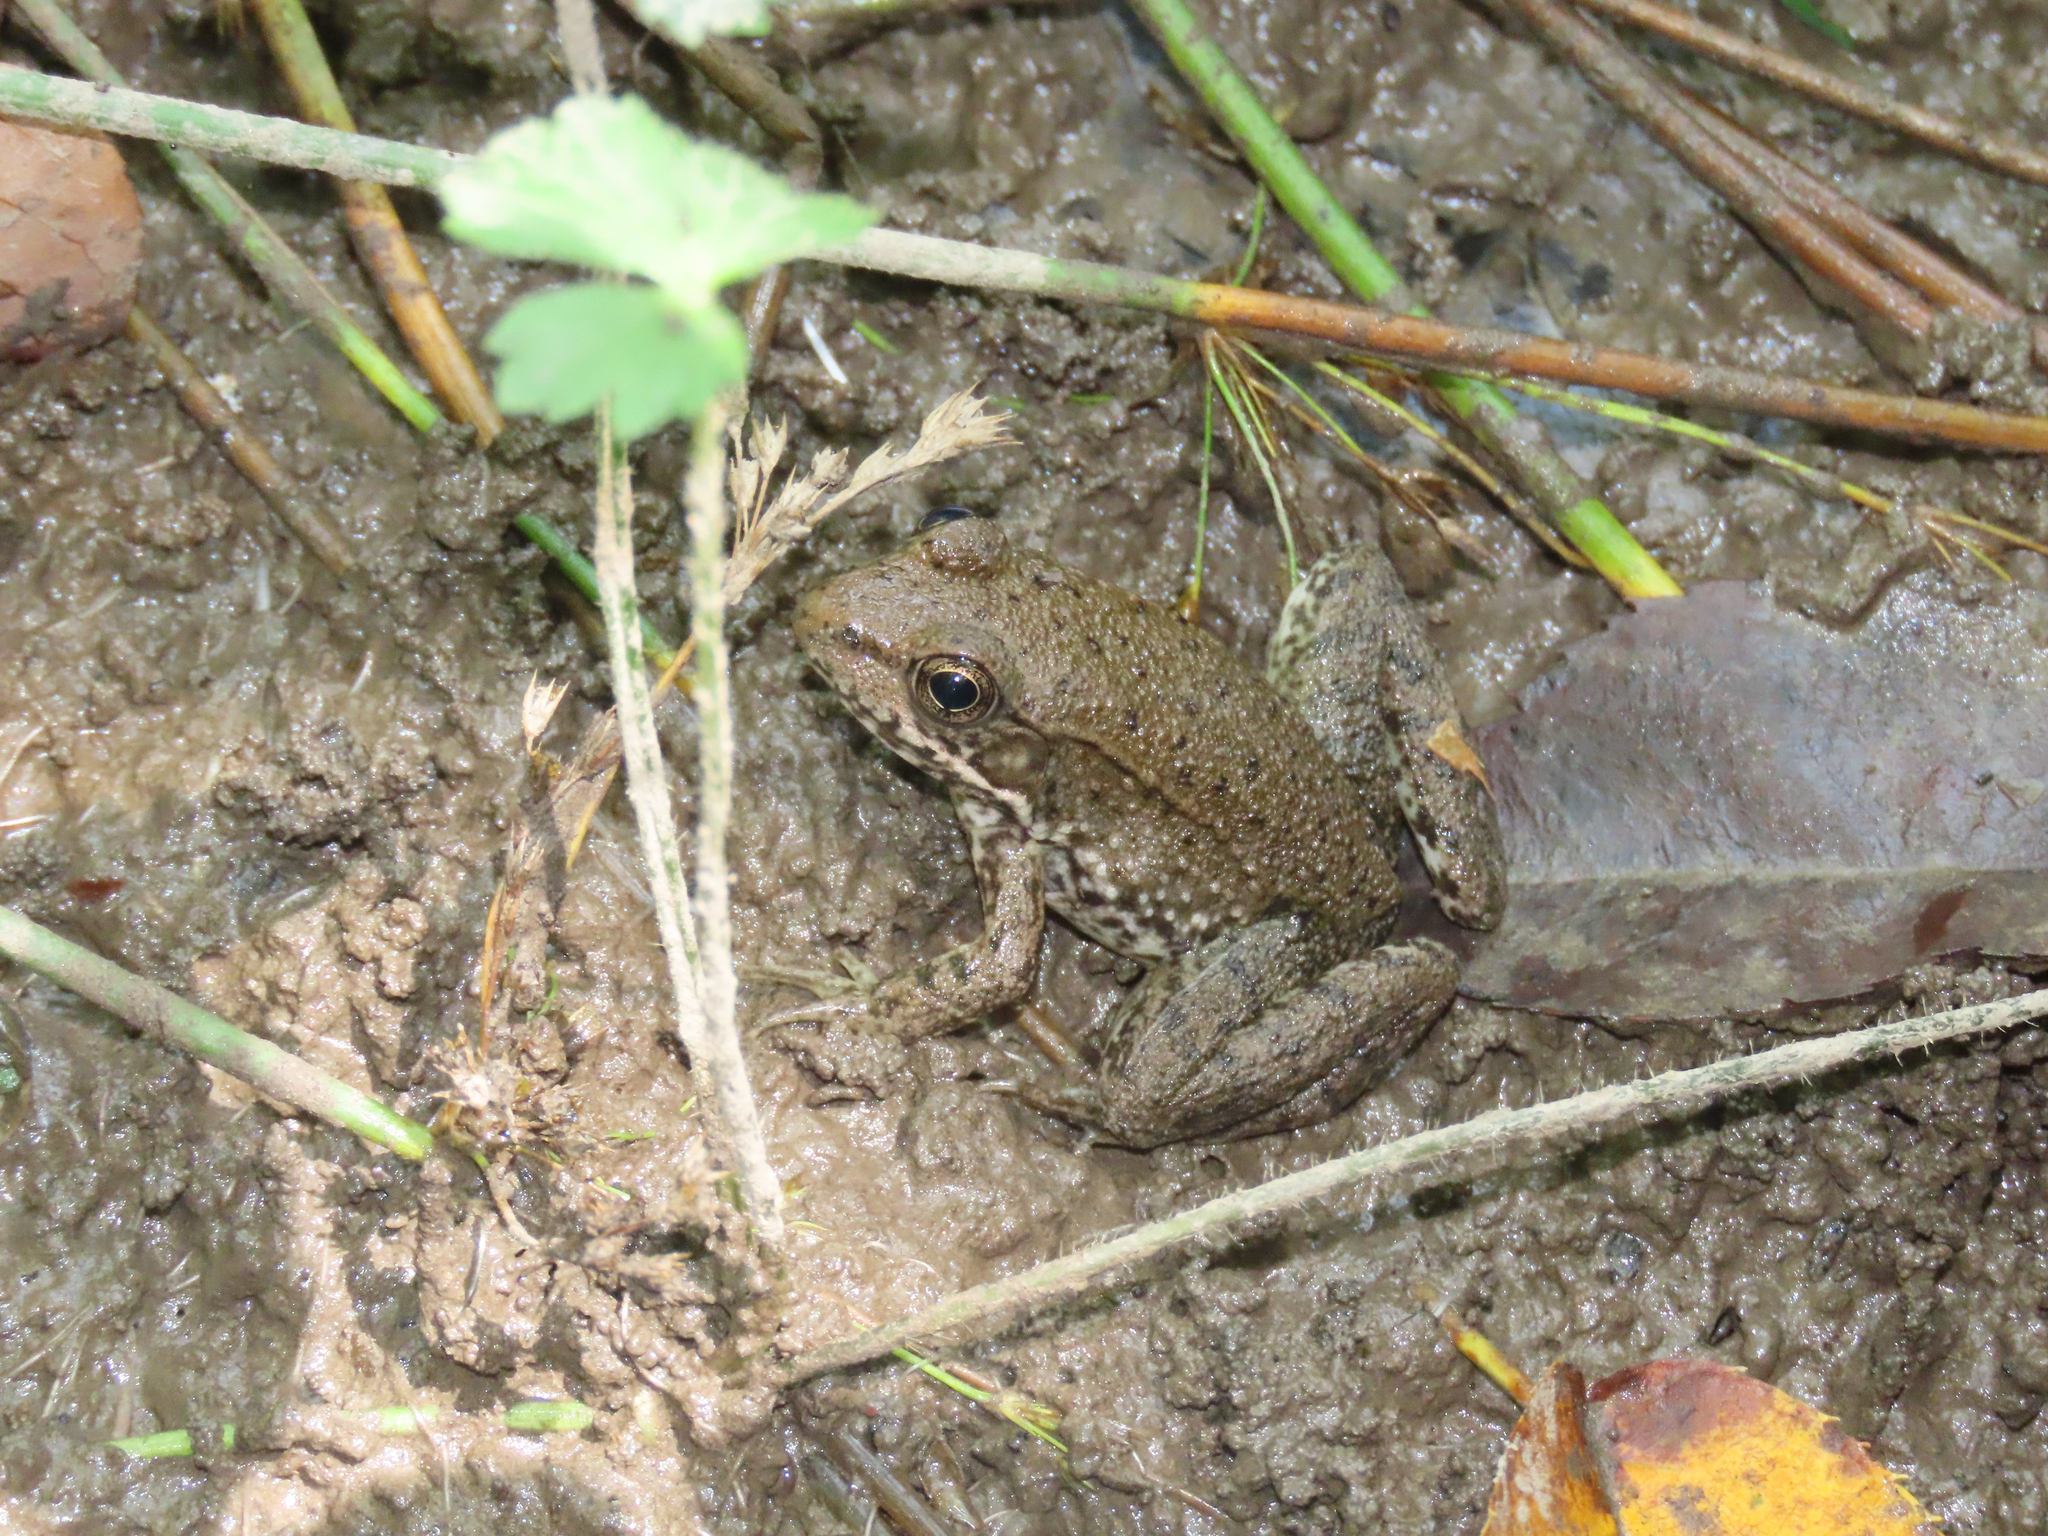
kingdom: Animalia
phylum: Chordata
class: Amphibia
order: Anura
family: Ranidae
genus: Lithobates
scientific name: Lithobates clamitans
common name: Green frog
